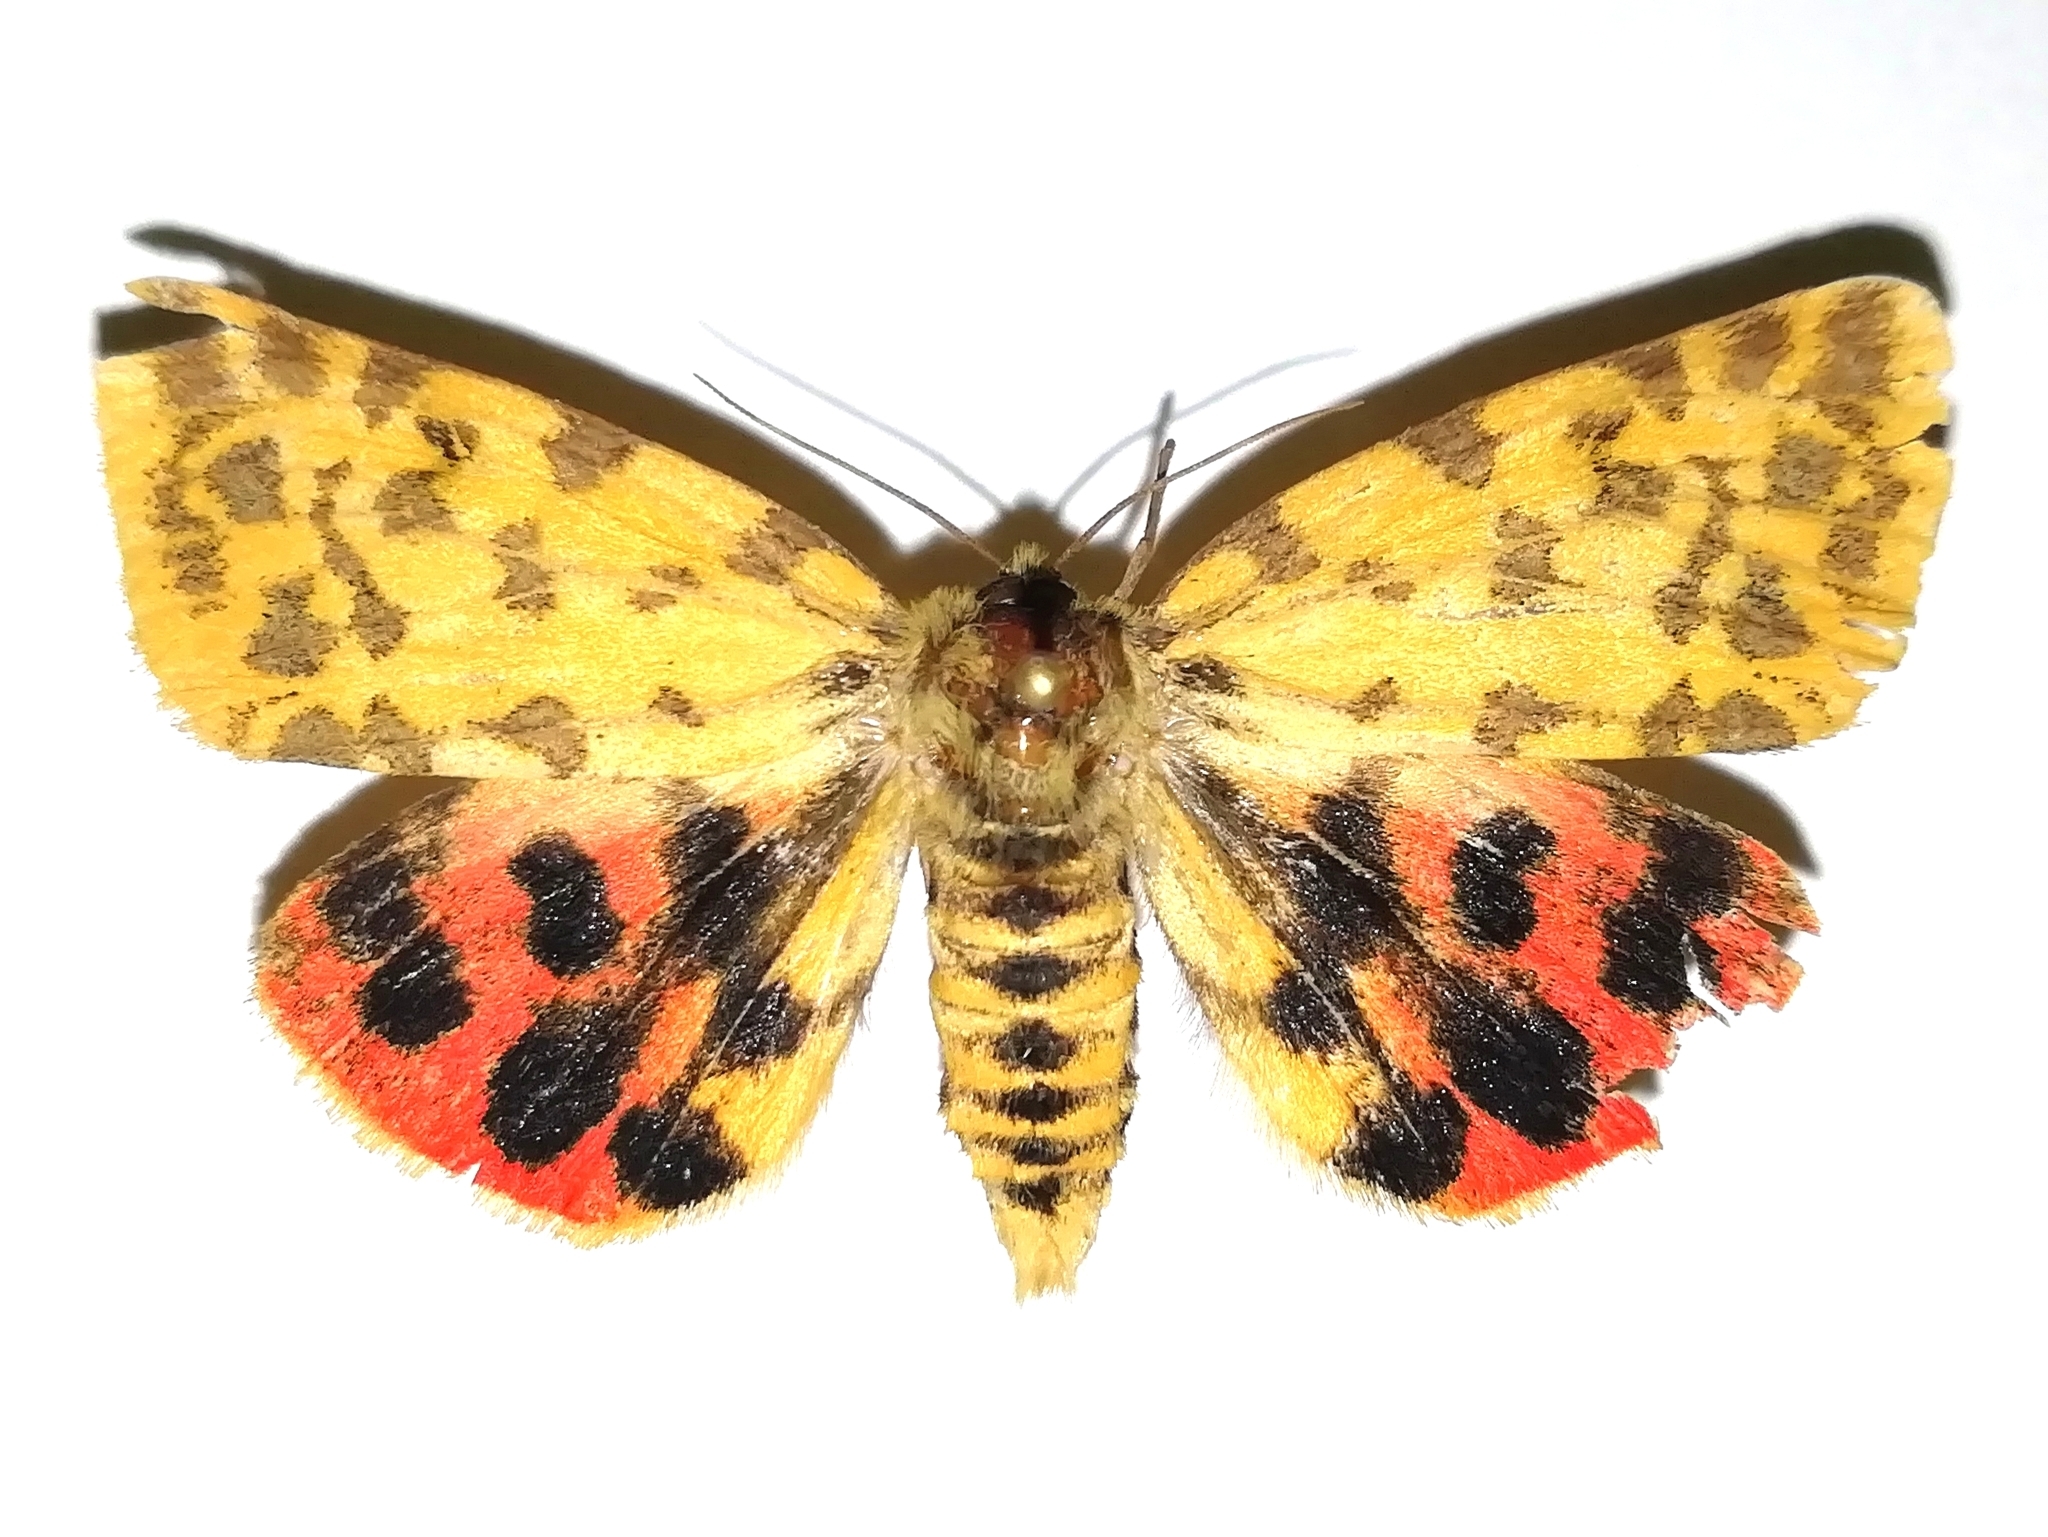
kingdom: Animalia
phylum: Arthropoda
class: Insecta
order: Lepidoptera
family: Erebidae
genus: Rhyparia
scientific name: Rhyparia purpurata
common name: Purple tiger
